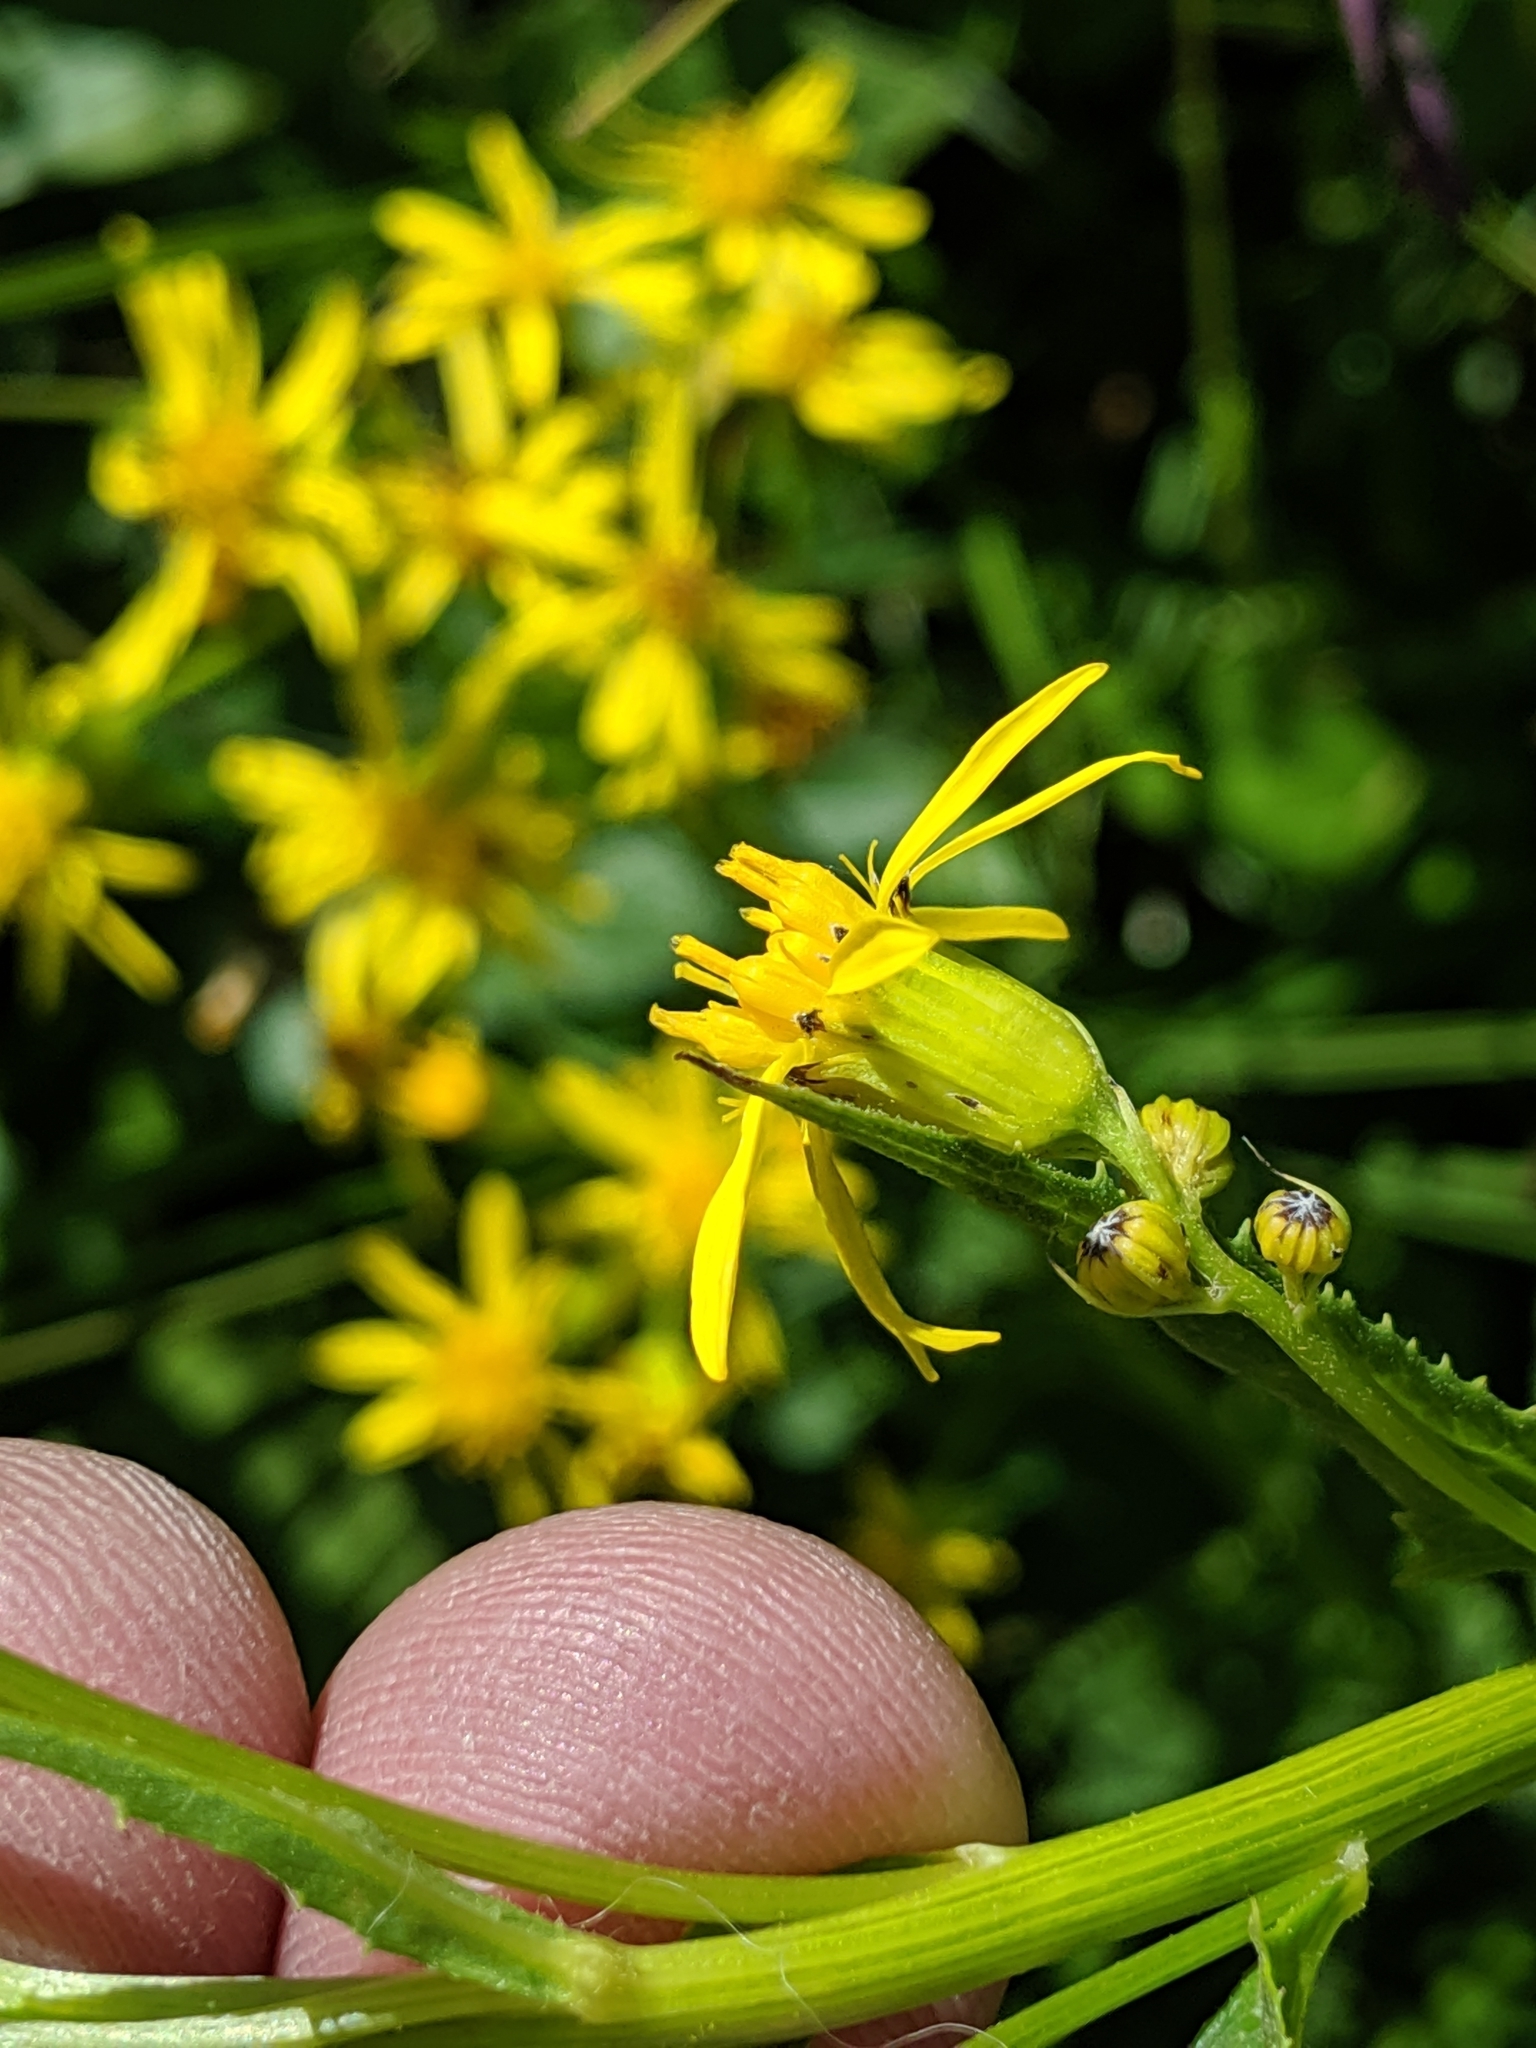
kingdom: Plantae
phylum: Tracheophyta
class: Magnoliopsida
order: Asterales
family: Asteraceae
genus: Senecio
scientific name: Senecio triangularis
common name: Arrowleaf butterweed
